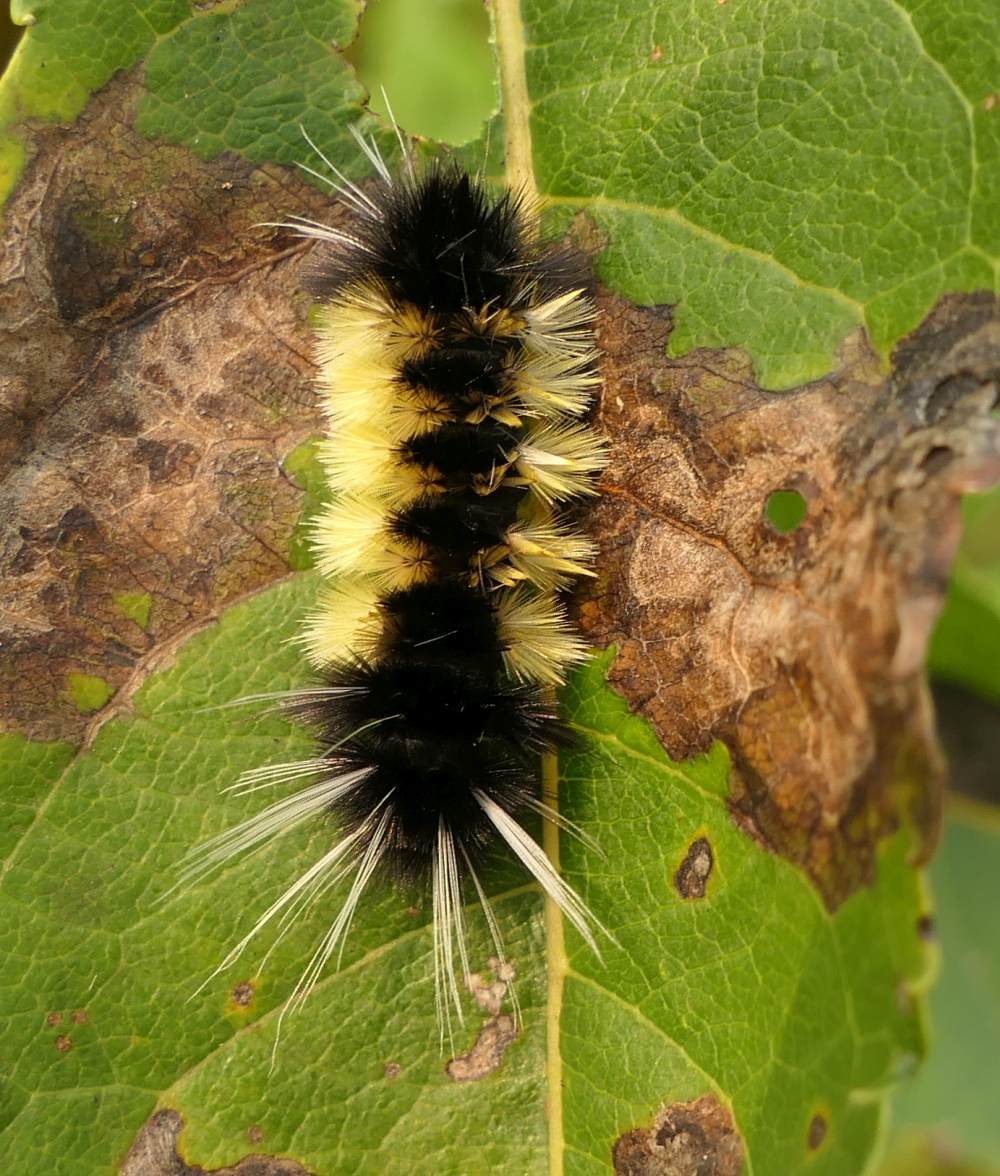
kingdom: Animalia
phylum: Arthropoda
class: Insecta
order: Lepidoptera
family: Erebidae
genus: Lophocampa
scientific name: Lophocampa maculata
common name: Spotted tussock moth
